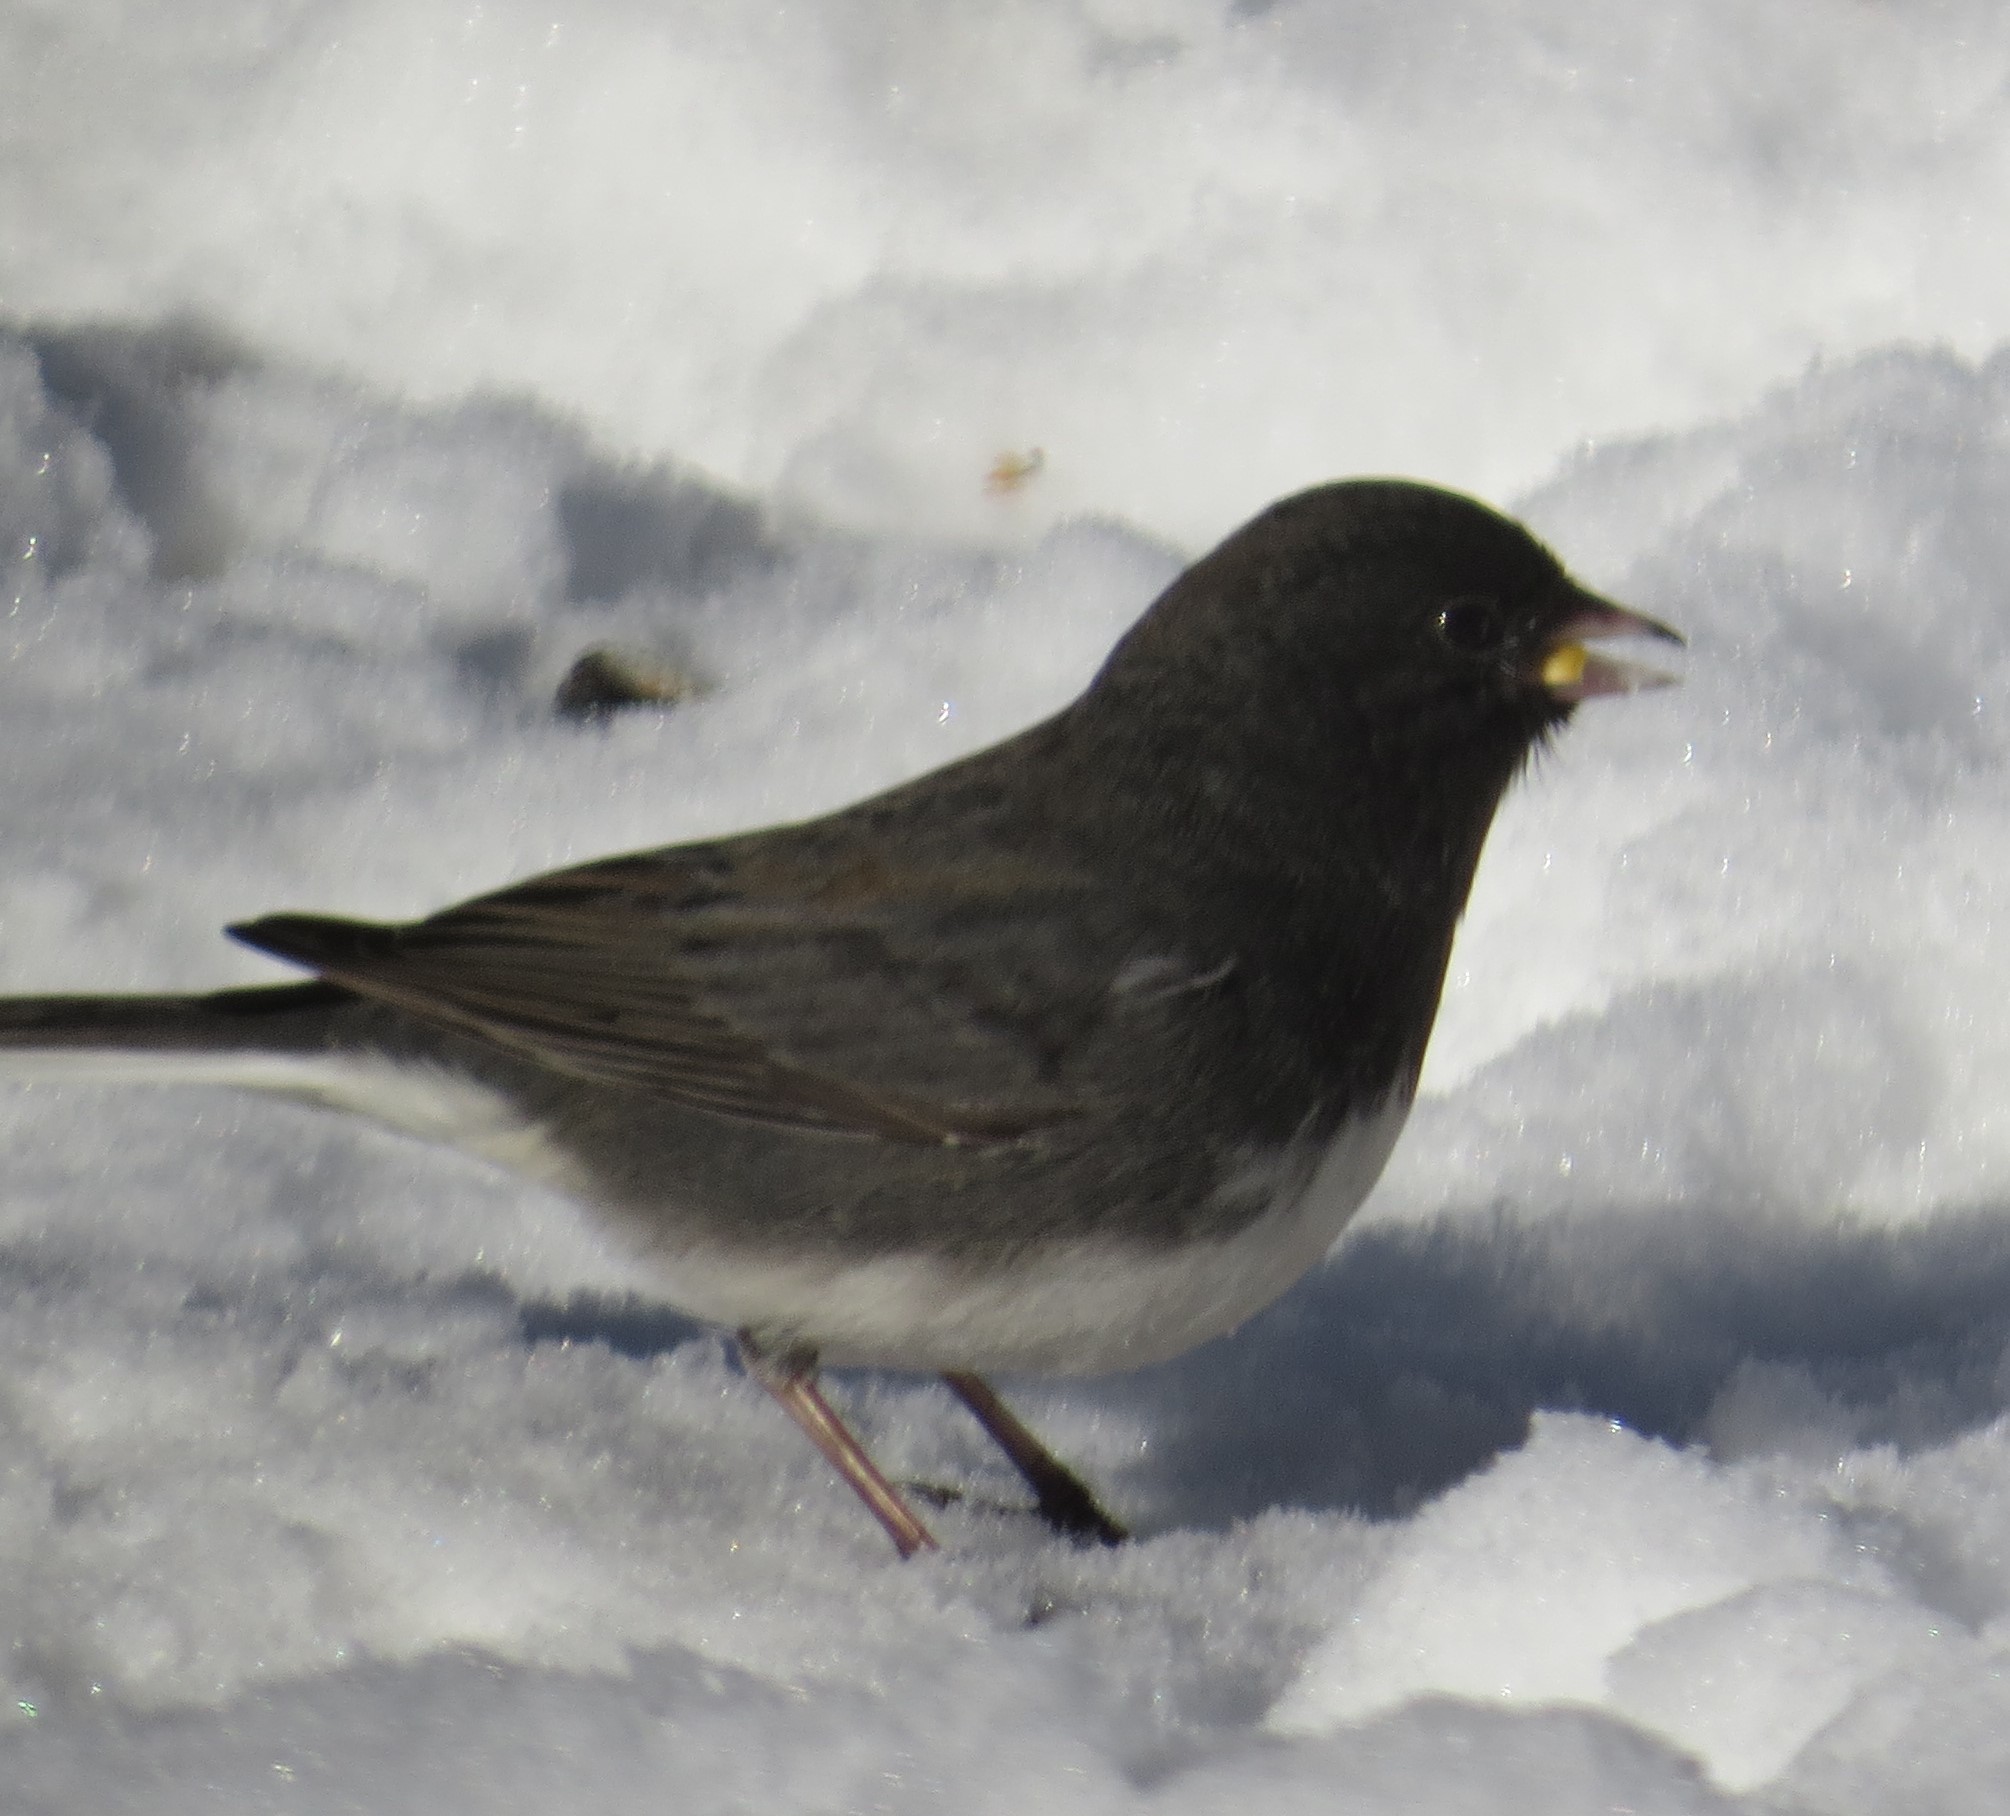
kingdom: Animalia
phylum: Chordata
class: Aves
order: Passeriformes
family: Passerellidae
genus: Junco
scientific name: Junco hyemalis
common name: Dark-eyed junco
